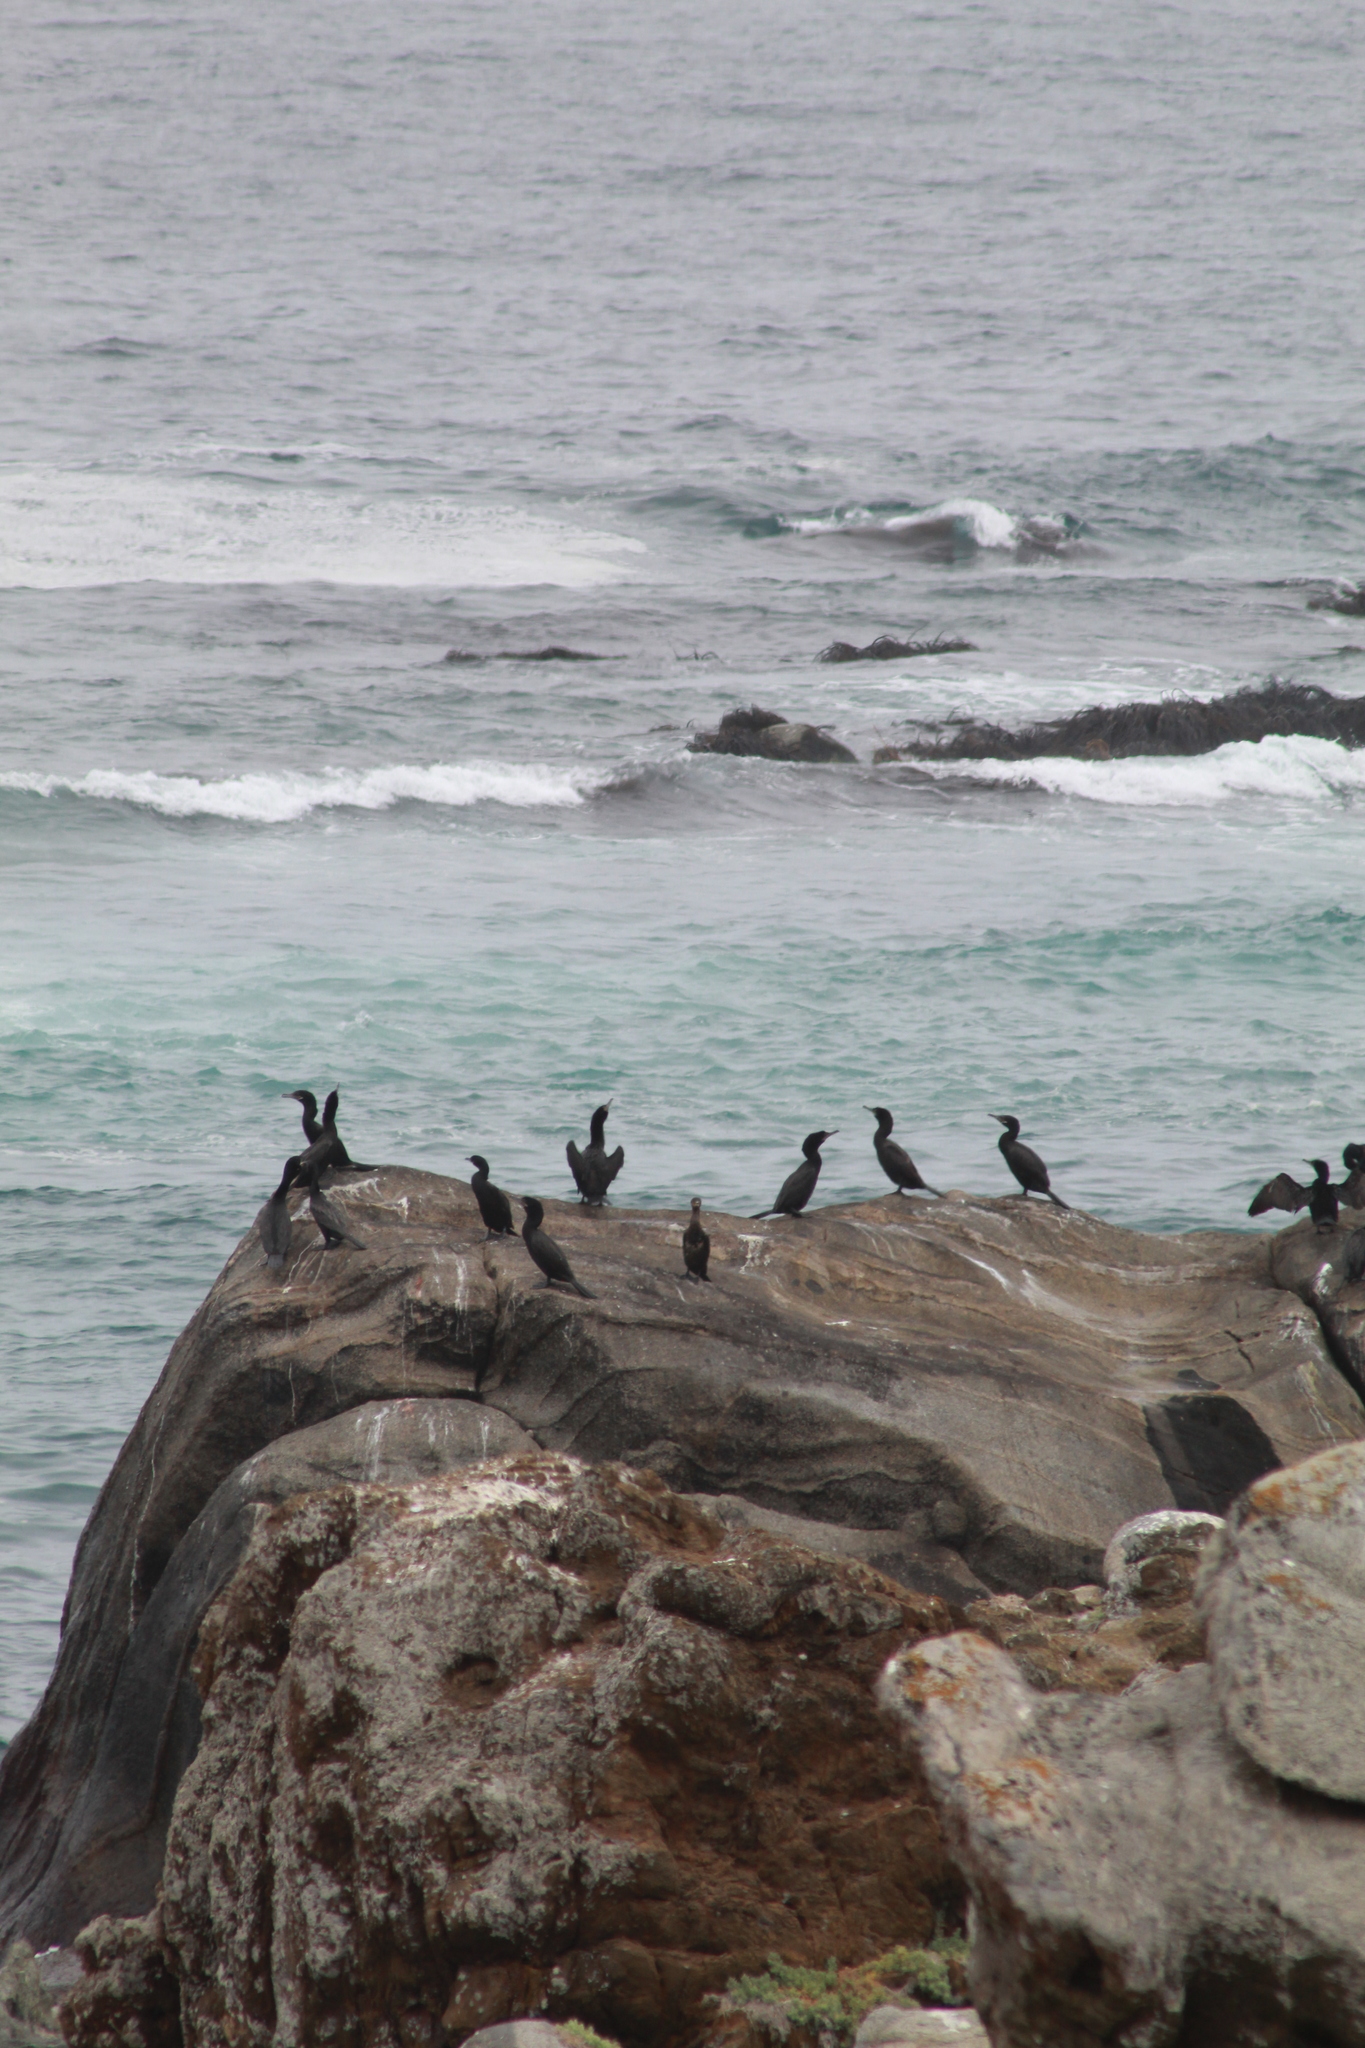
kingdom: Animalia
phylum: Chordata
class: Aves
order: Suliformes
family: Phalacrocoracidae
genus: Phalacrocorax
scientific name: Phalacrocorax brasilianus
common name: Neotropic cormorant
